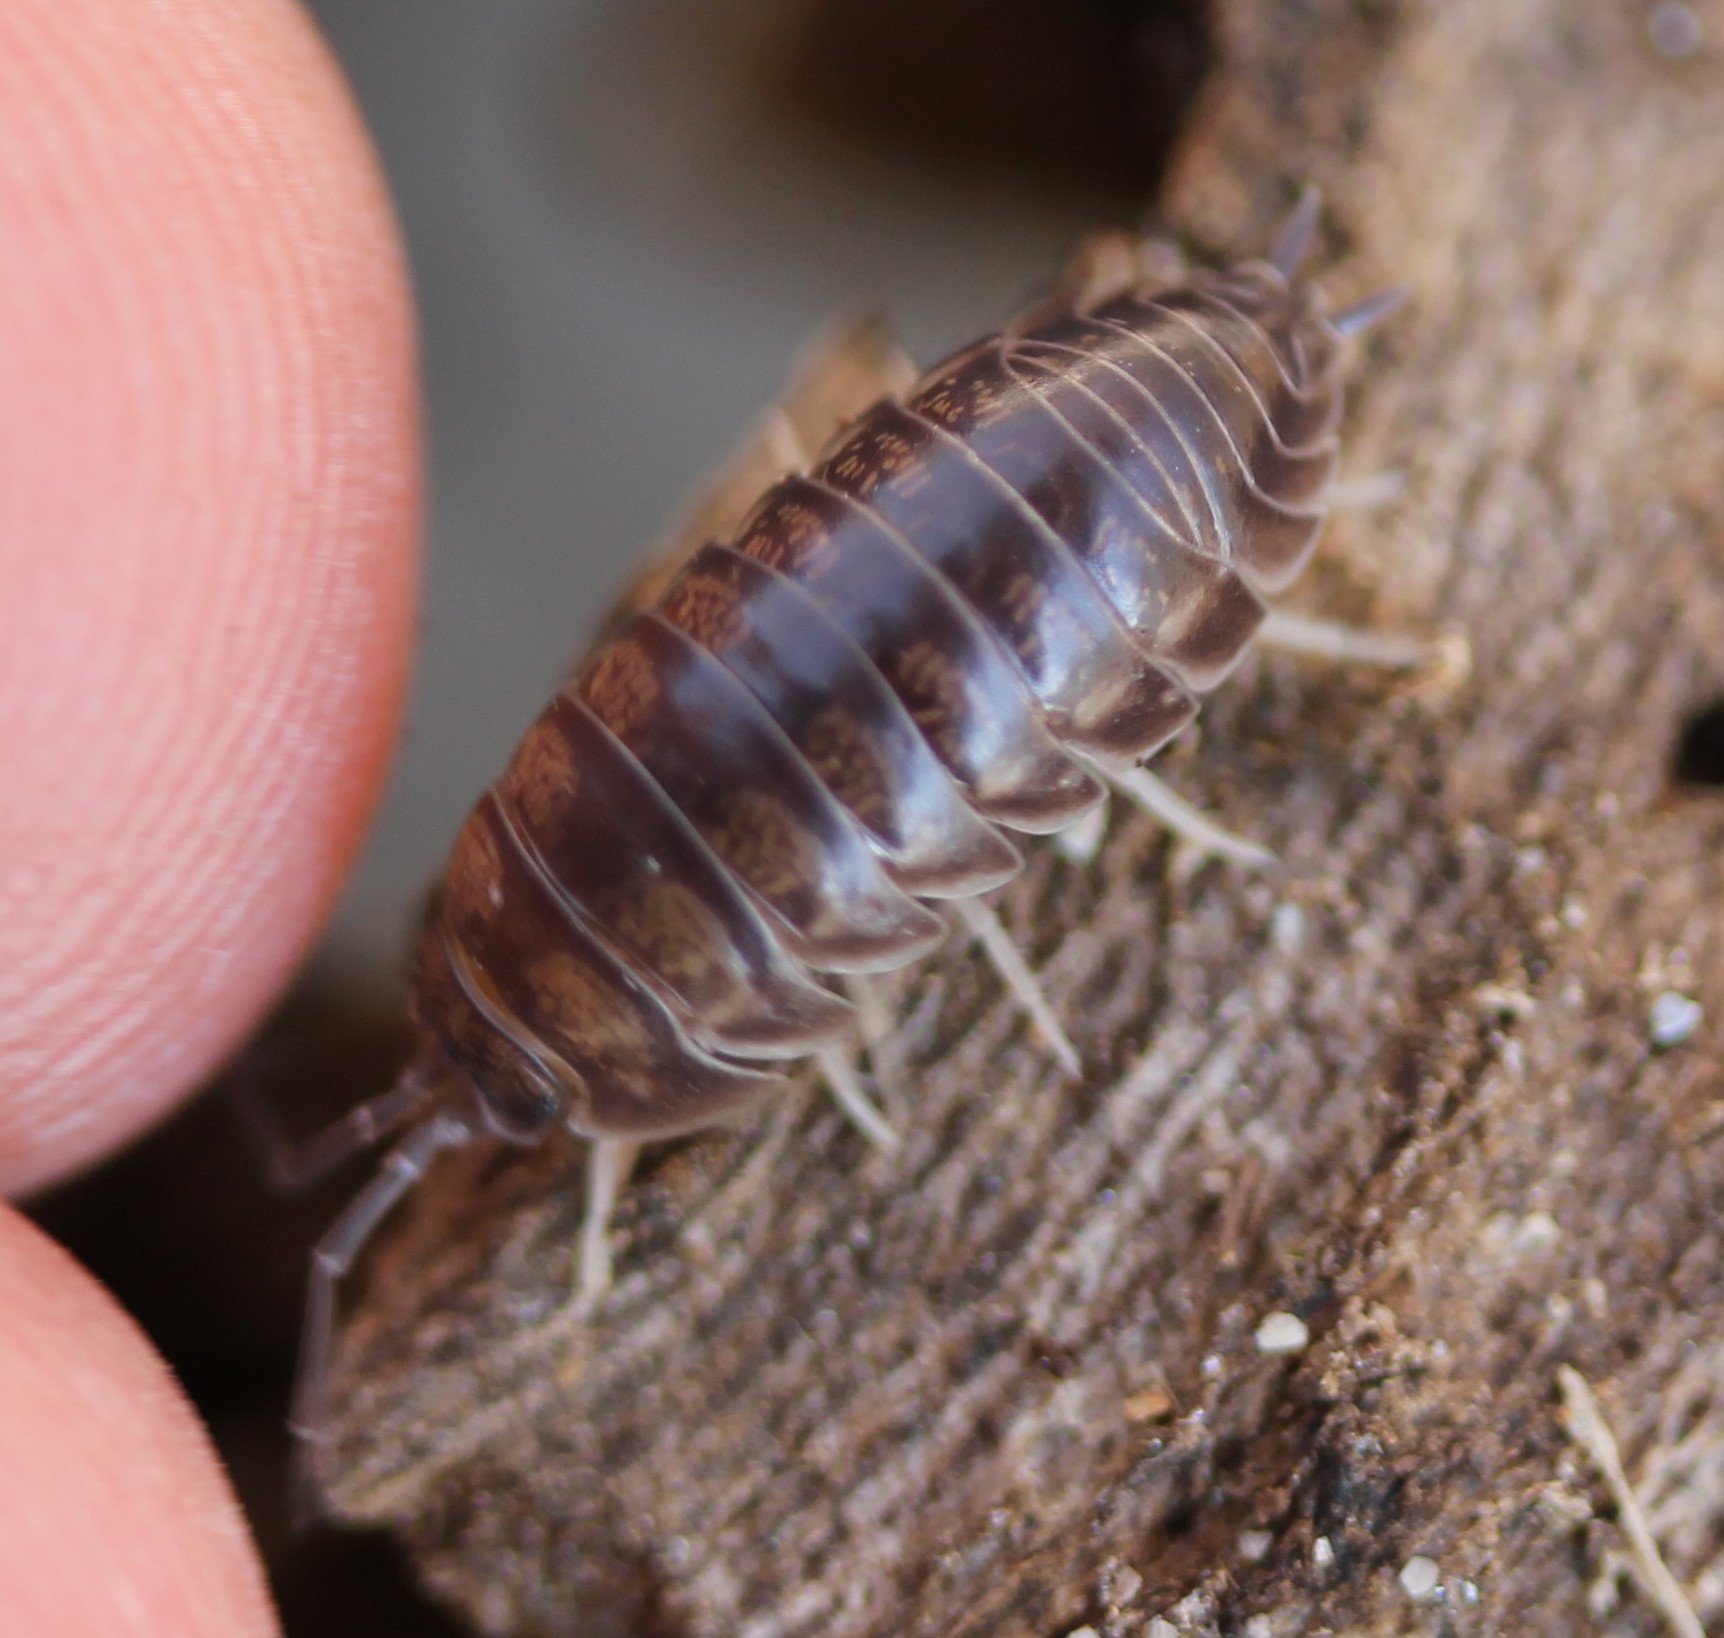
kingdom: Animalia
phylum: Arthropoda
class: Malacostraca
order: Isopoda
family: Cylisticidae
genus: Cylisticus
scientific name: Cylisticus convexus
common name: Curly woodlouse
